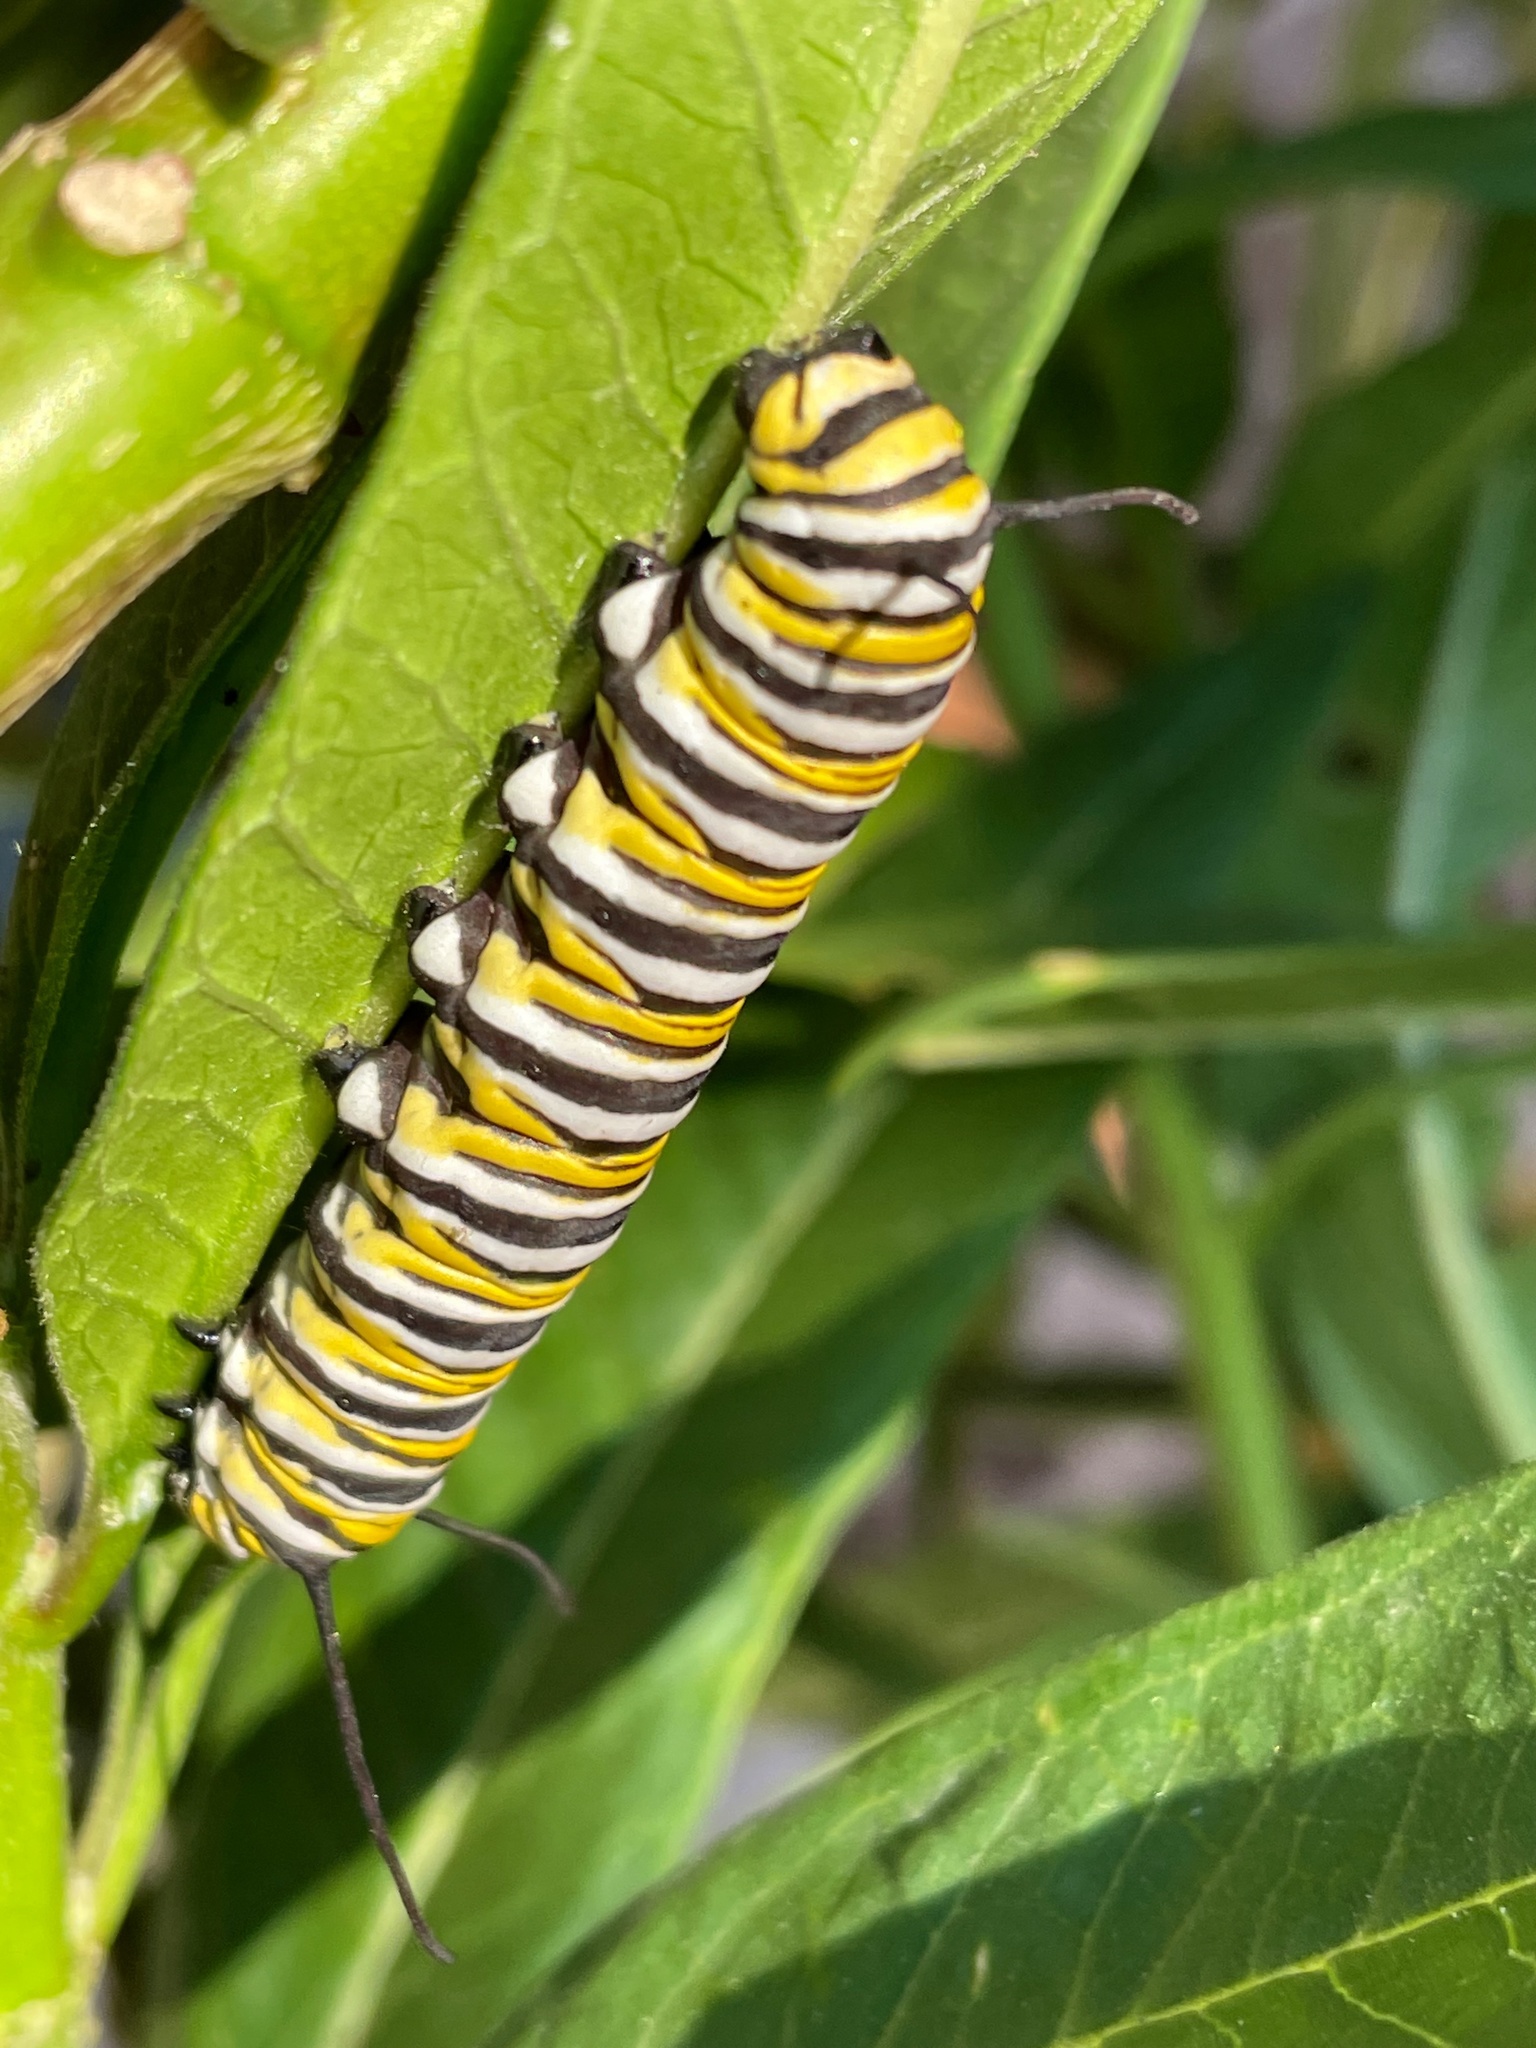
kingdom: Animalia
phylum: Arthropoda
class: Insecta
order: Lepidoptera
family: Nymphalidae
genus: Danaus
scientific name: Danaus plexippus
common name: Monarch
